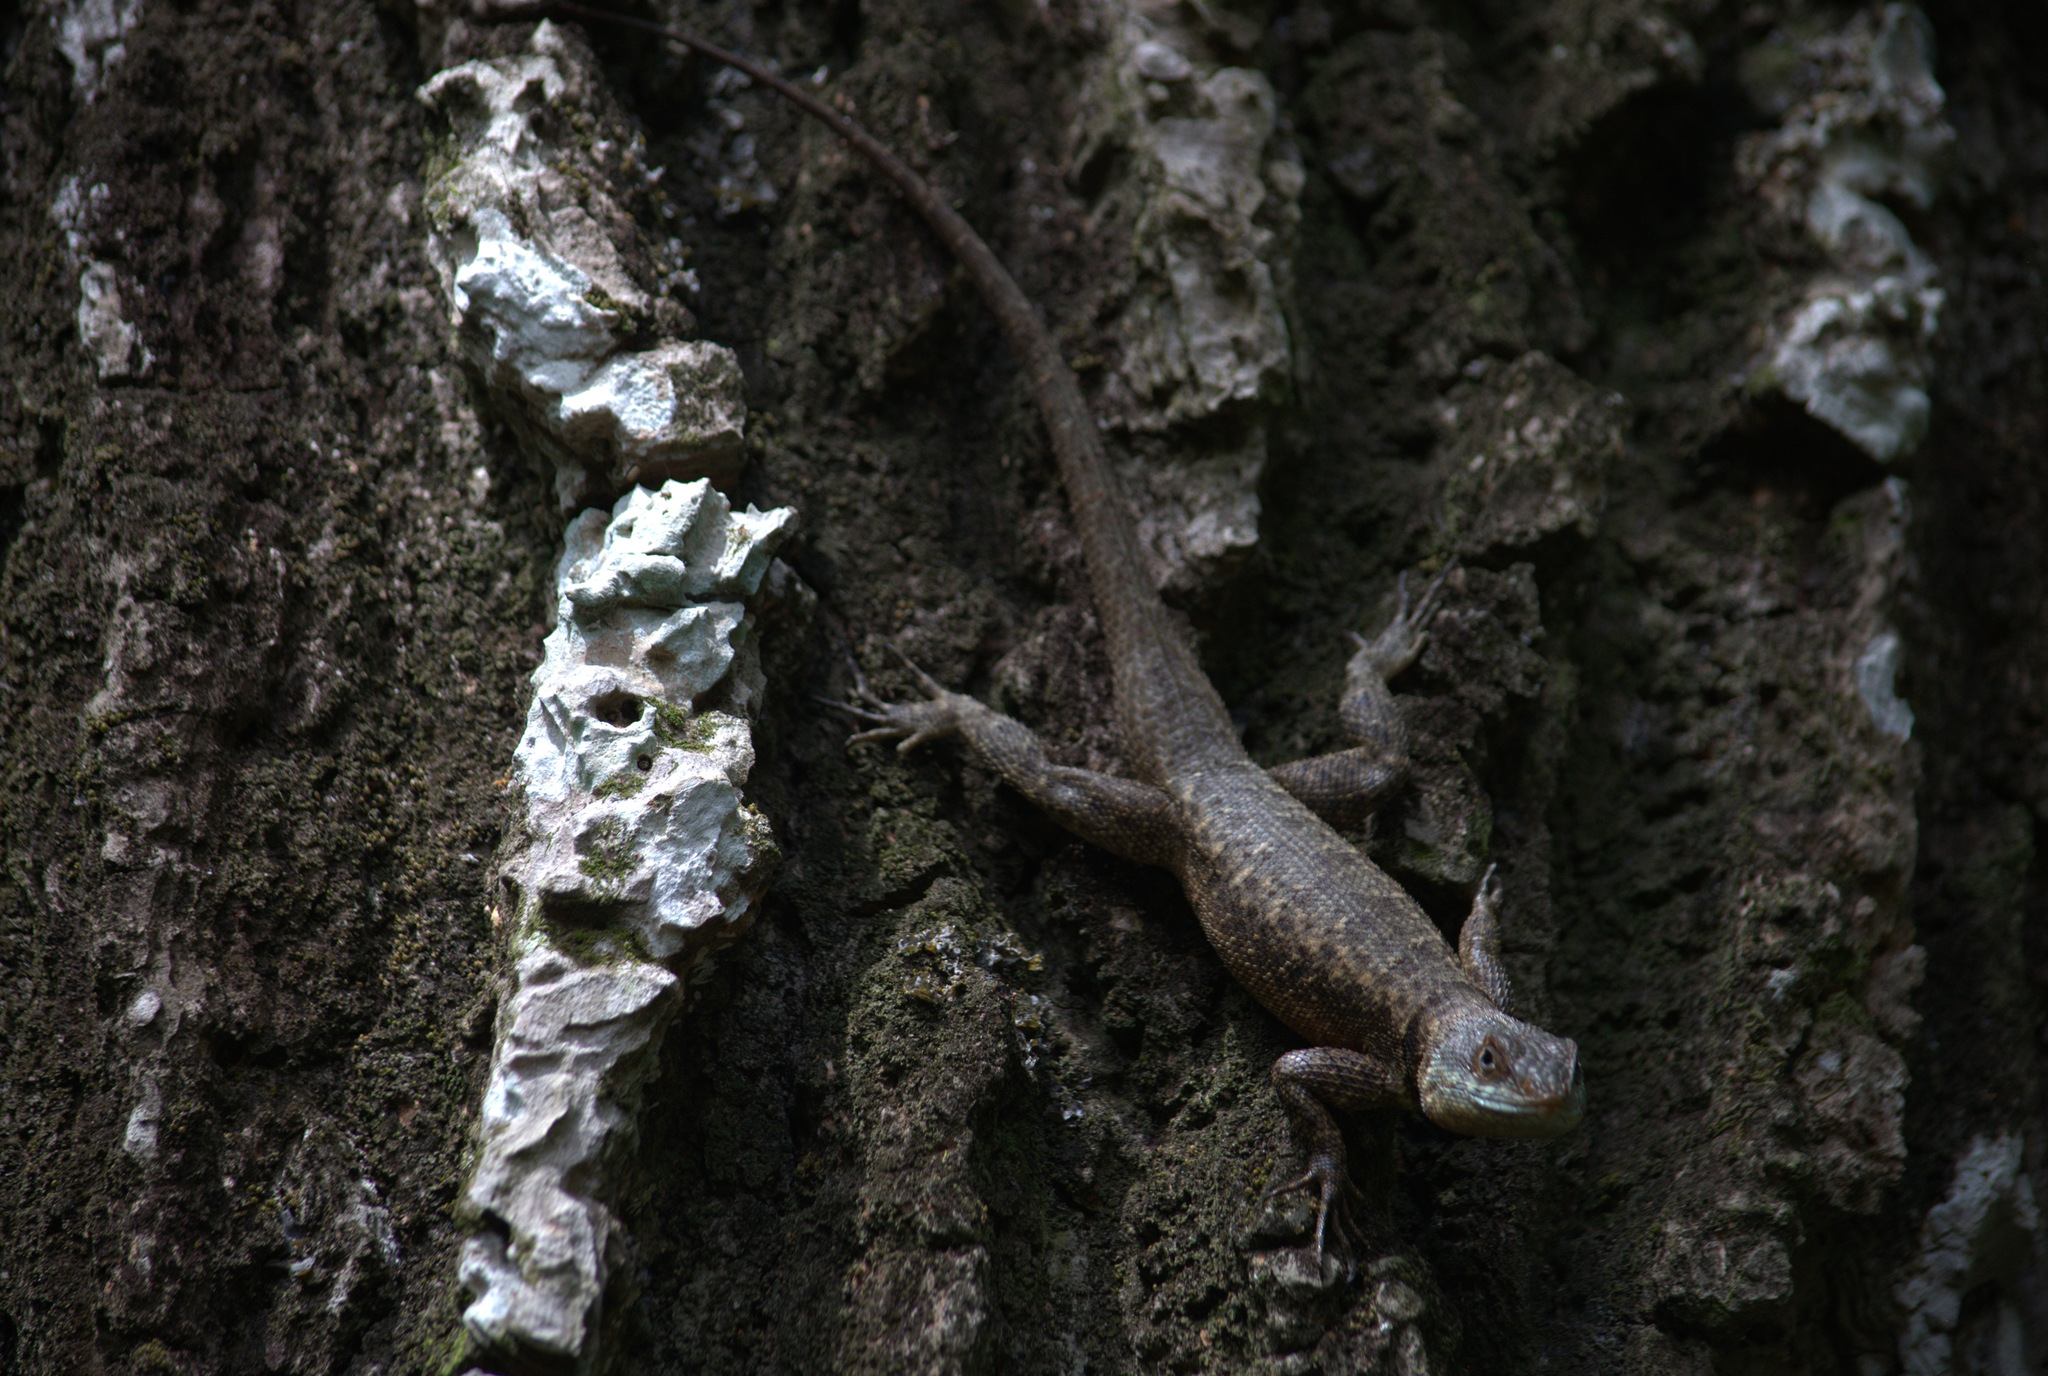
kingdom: Animalia
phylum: Chordata
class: Squamata
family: Tropiduridae
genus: Tropidurus
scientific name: Tropidurus hispidus
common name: Peters' lava lizard
